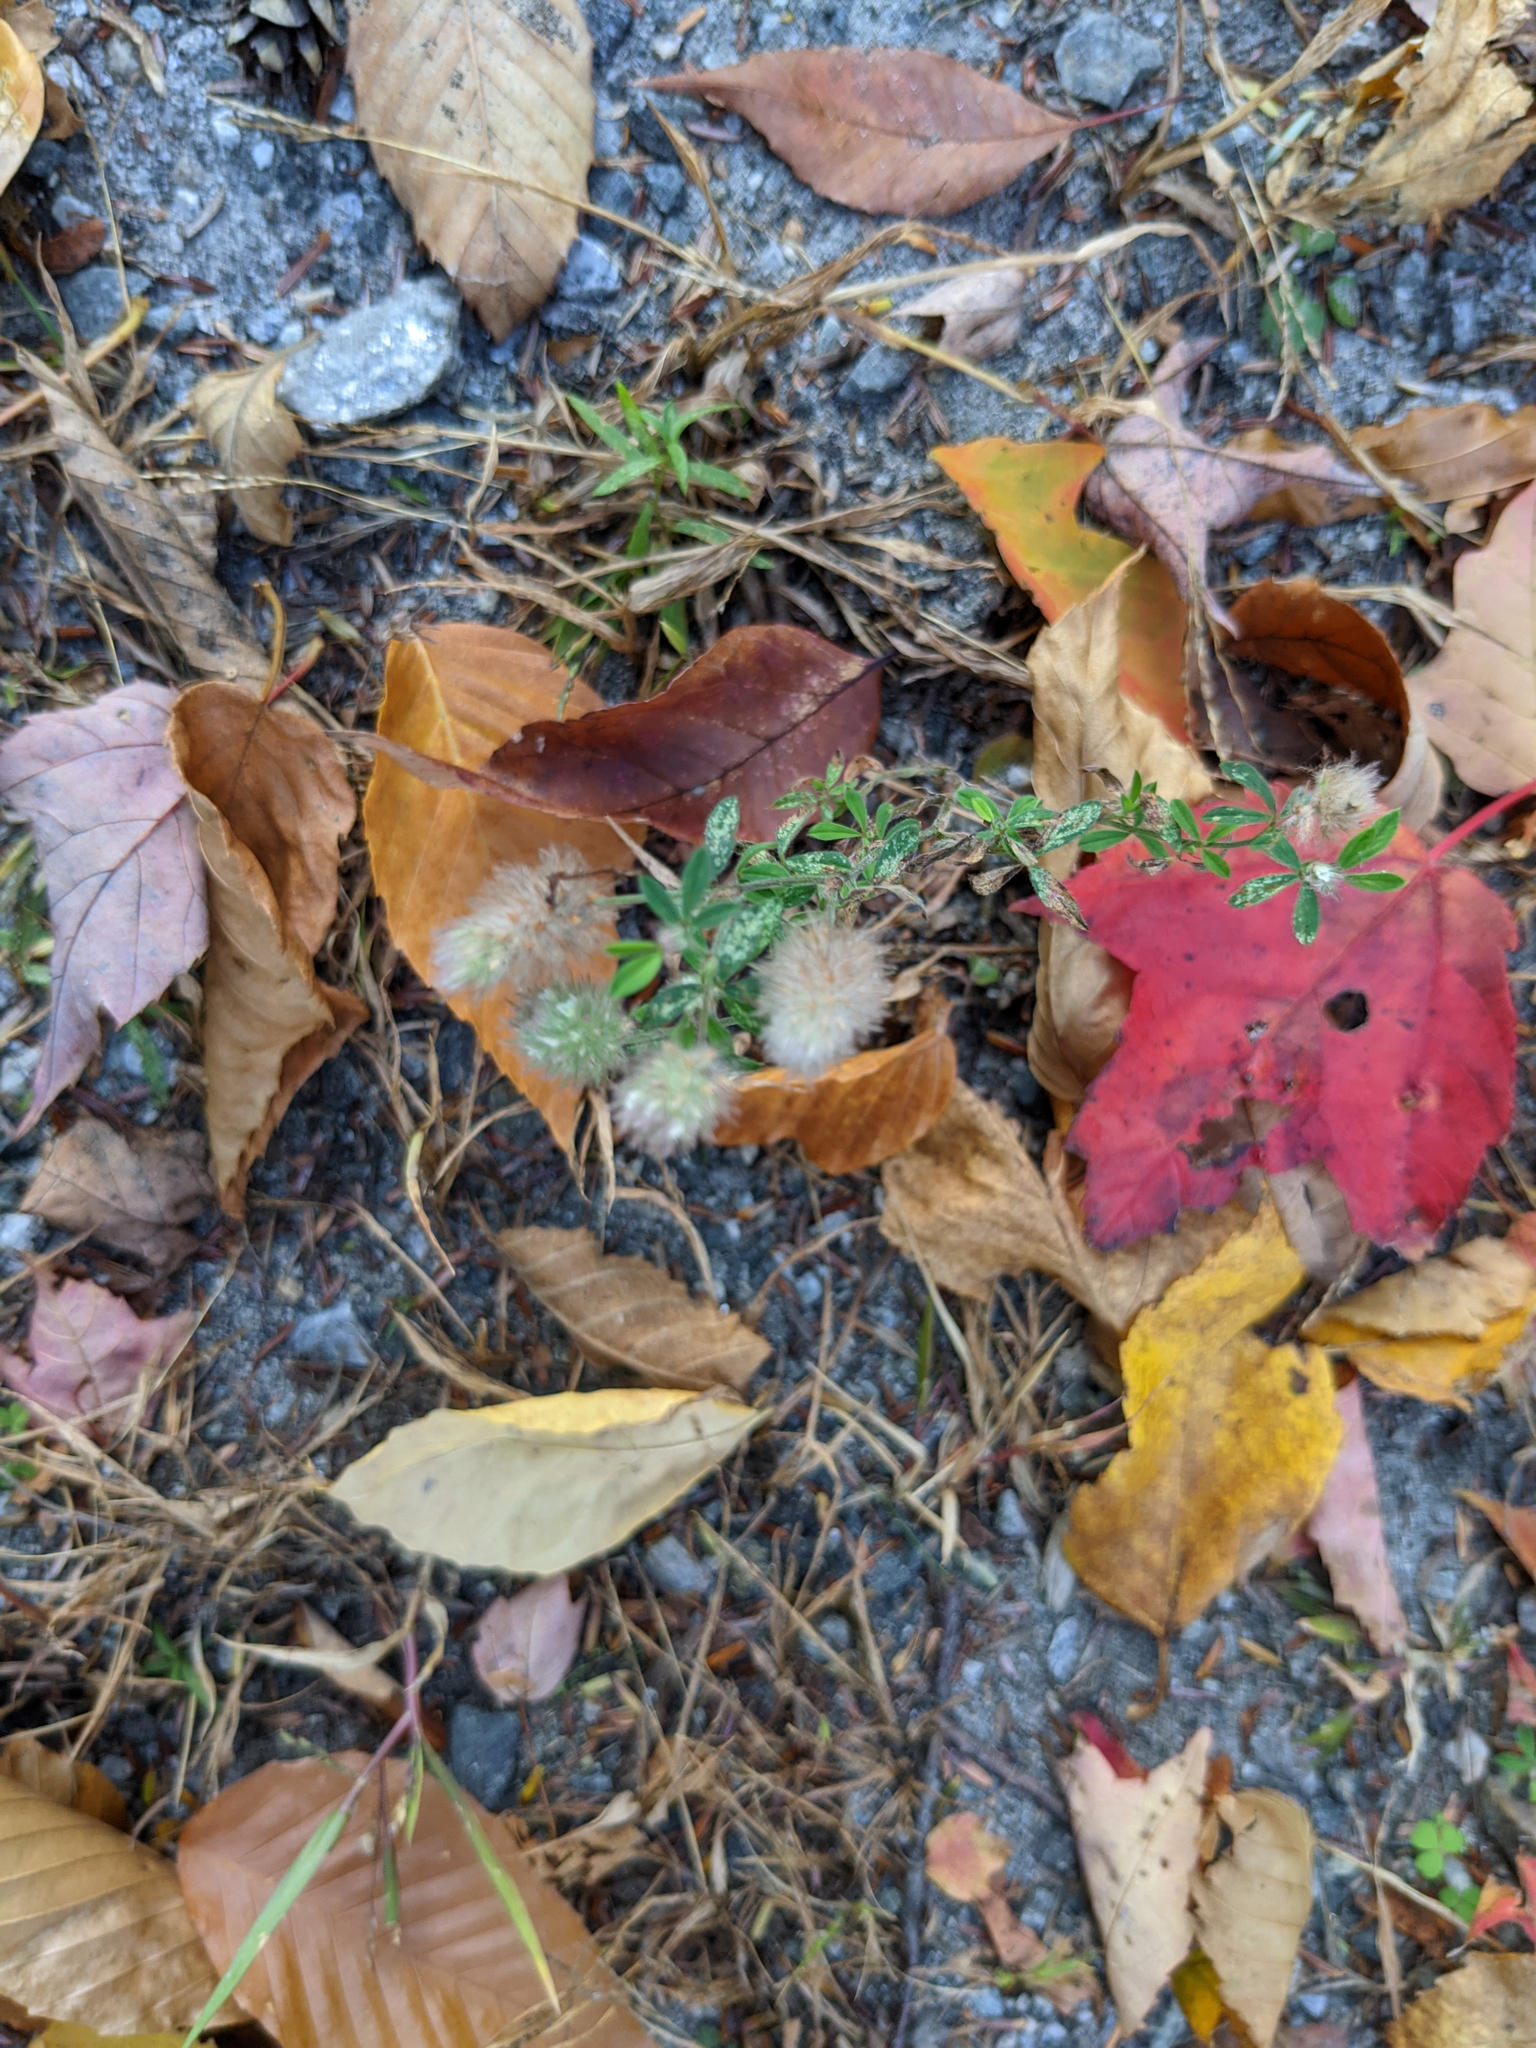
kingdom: Plantae
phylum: Tracheophyta
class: Magnoliopsida
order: Fabales
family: Fabaceae
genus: Trifolium
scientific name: Trifolium arvense
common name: Hare's-foot clover
